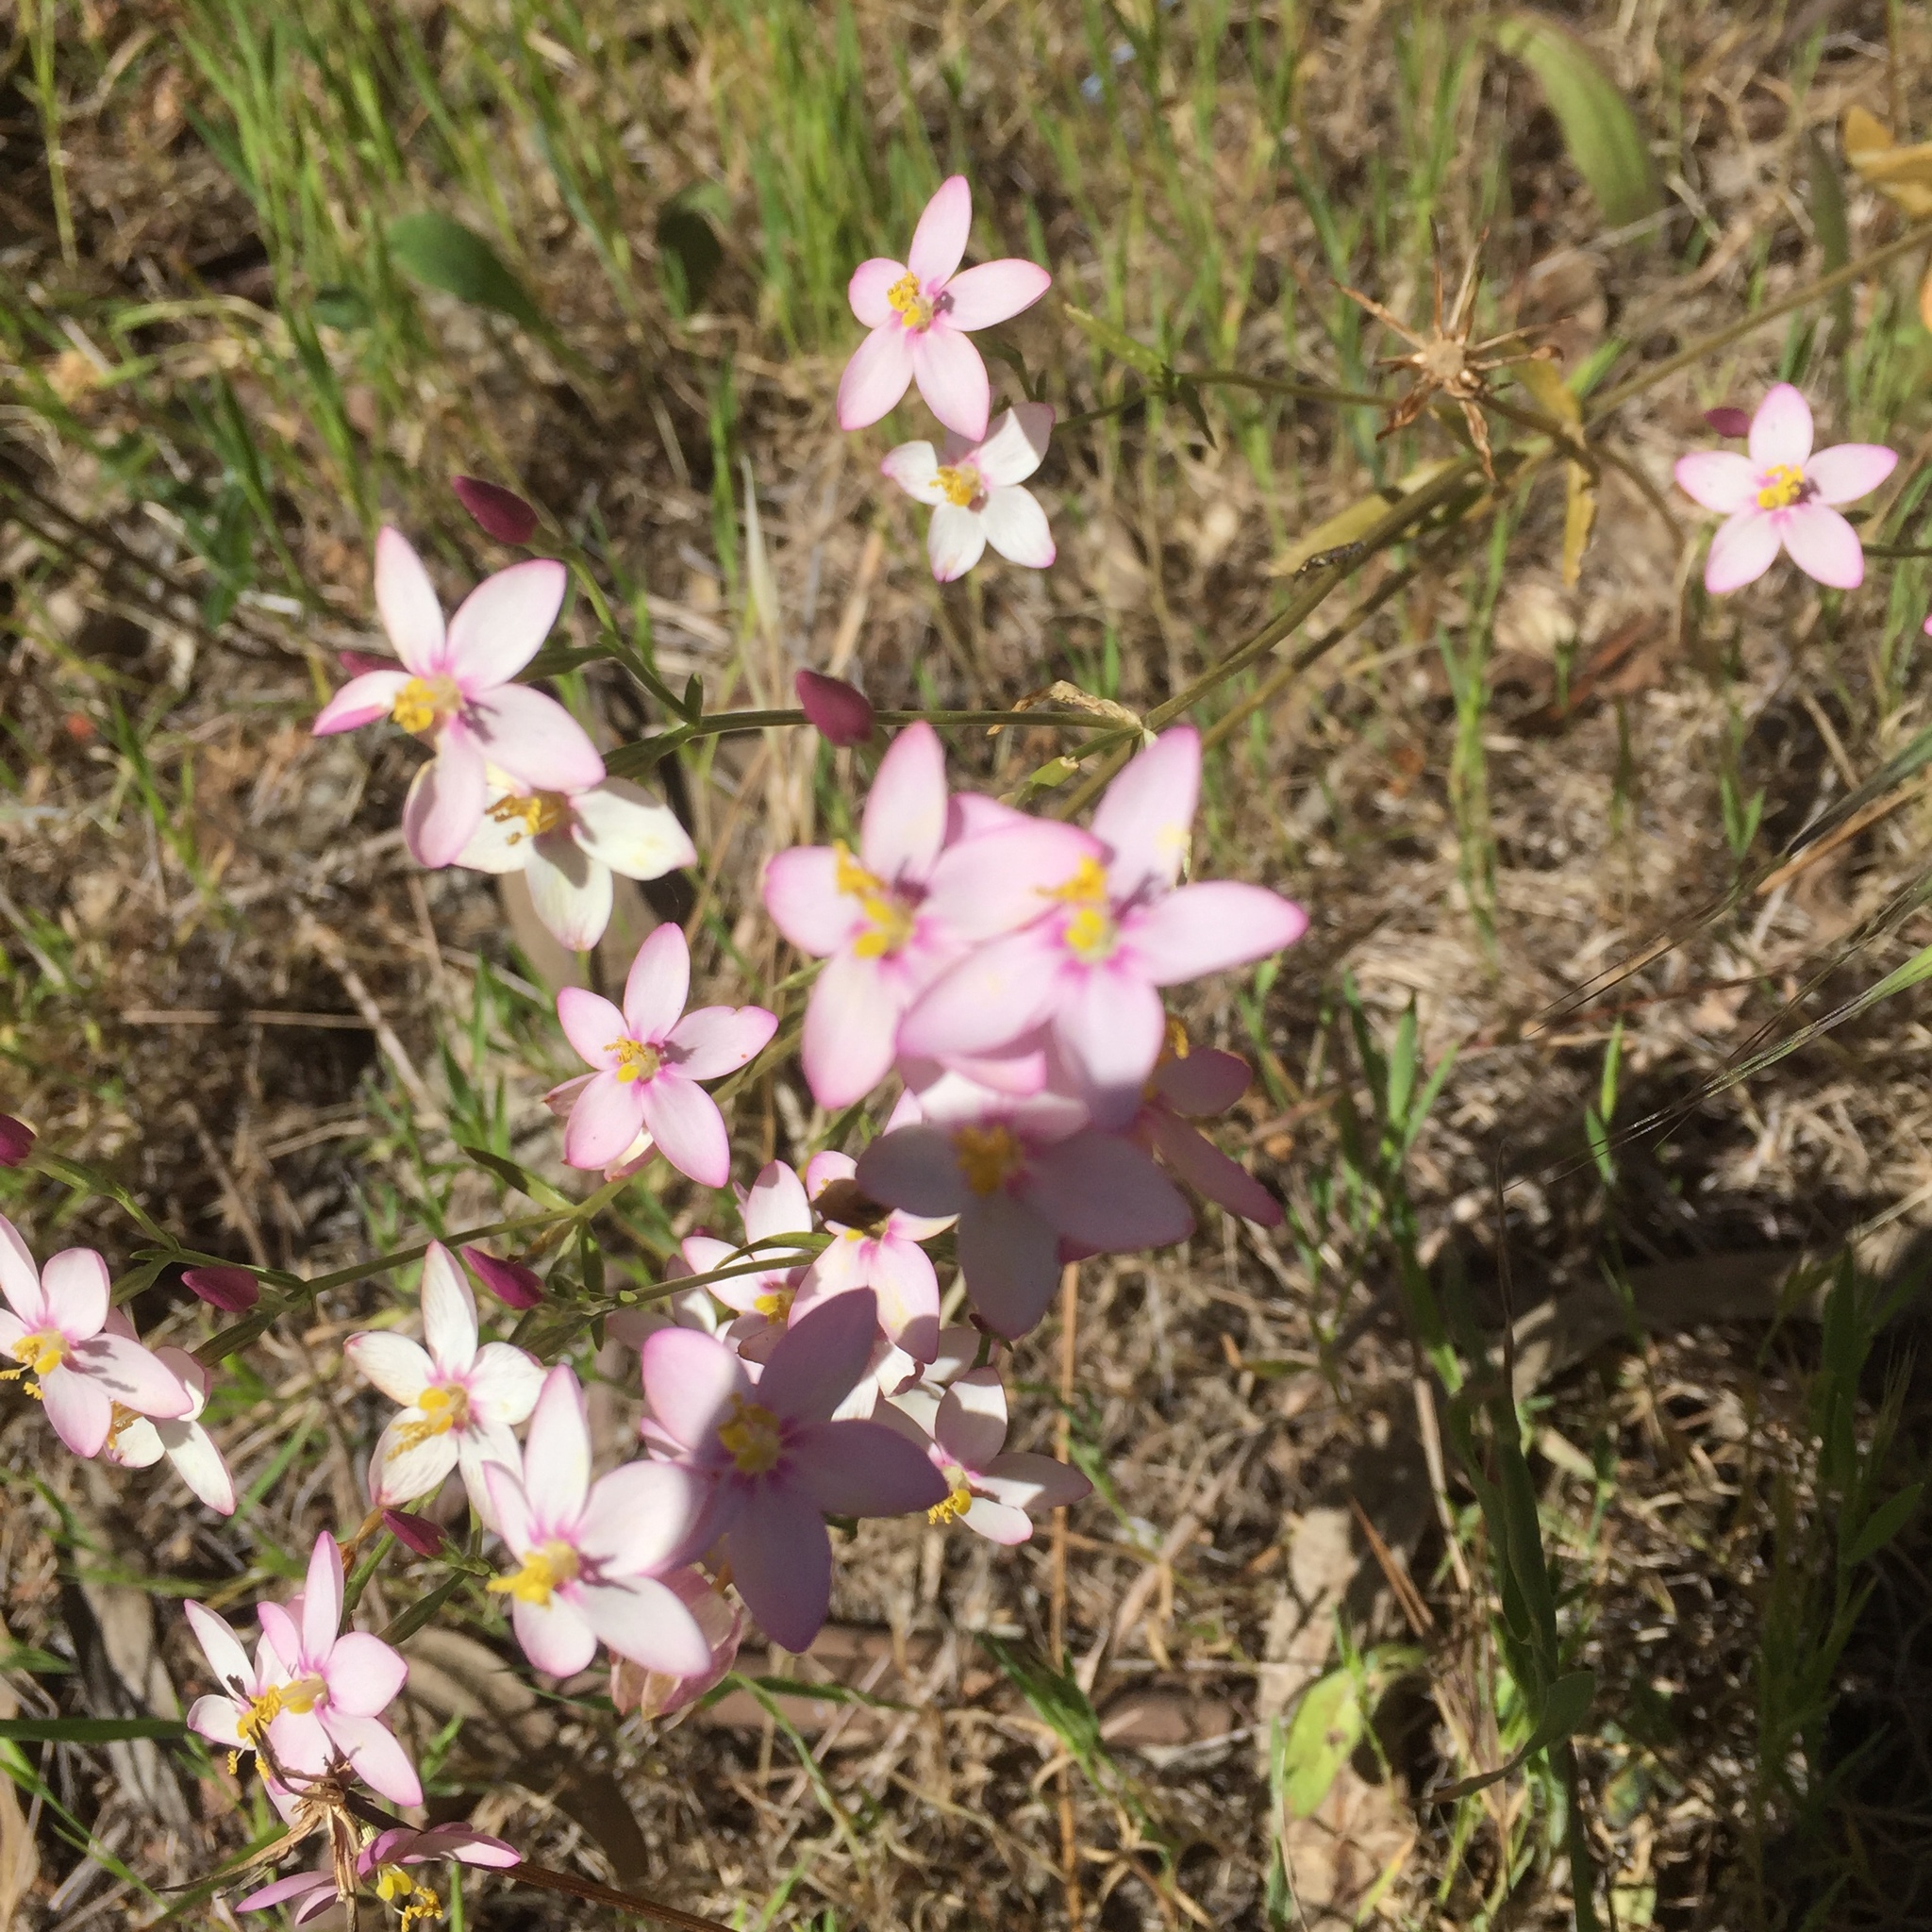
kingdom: Plantae
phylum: Tracheophyta
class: Magnoliopsida
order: Gentianales
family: Gentianaceae
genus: Centaurium
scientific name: Centaurium erythraea
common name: Common centaury
